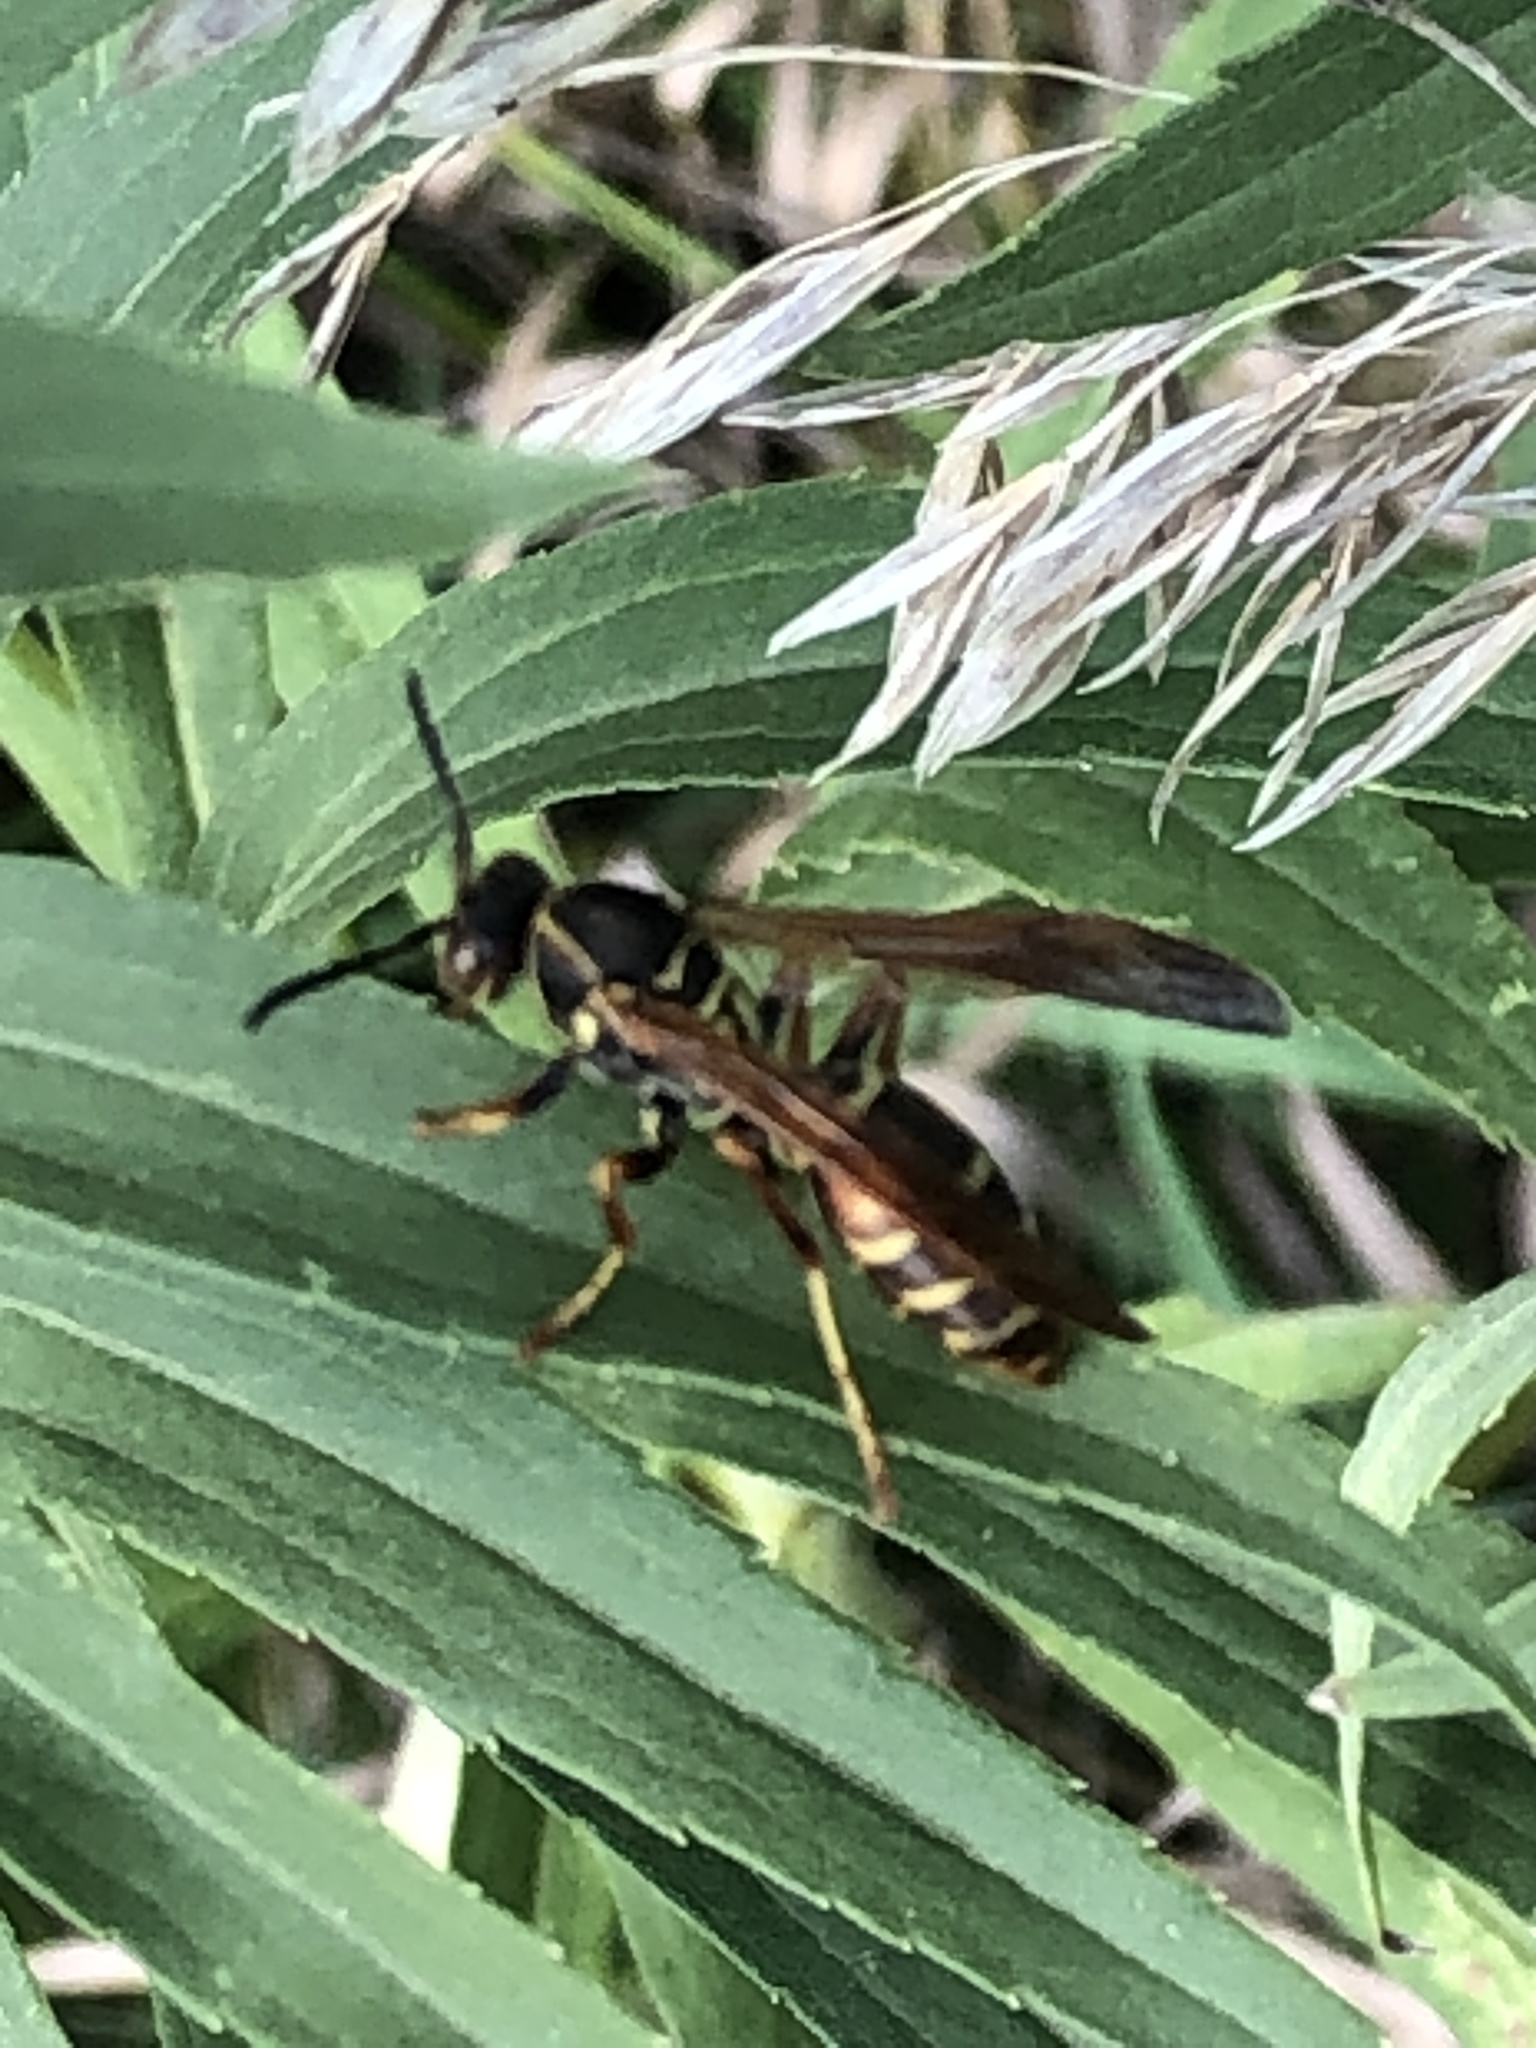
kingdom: Animalia
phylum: Arthropoda
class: Insecta
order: Hymenoptera
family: Eumenidae
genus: Polistes
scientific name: Polistes fuscatus
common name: Dark paper wasp
